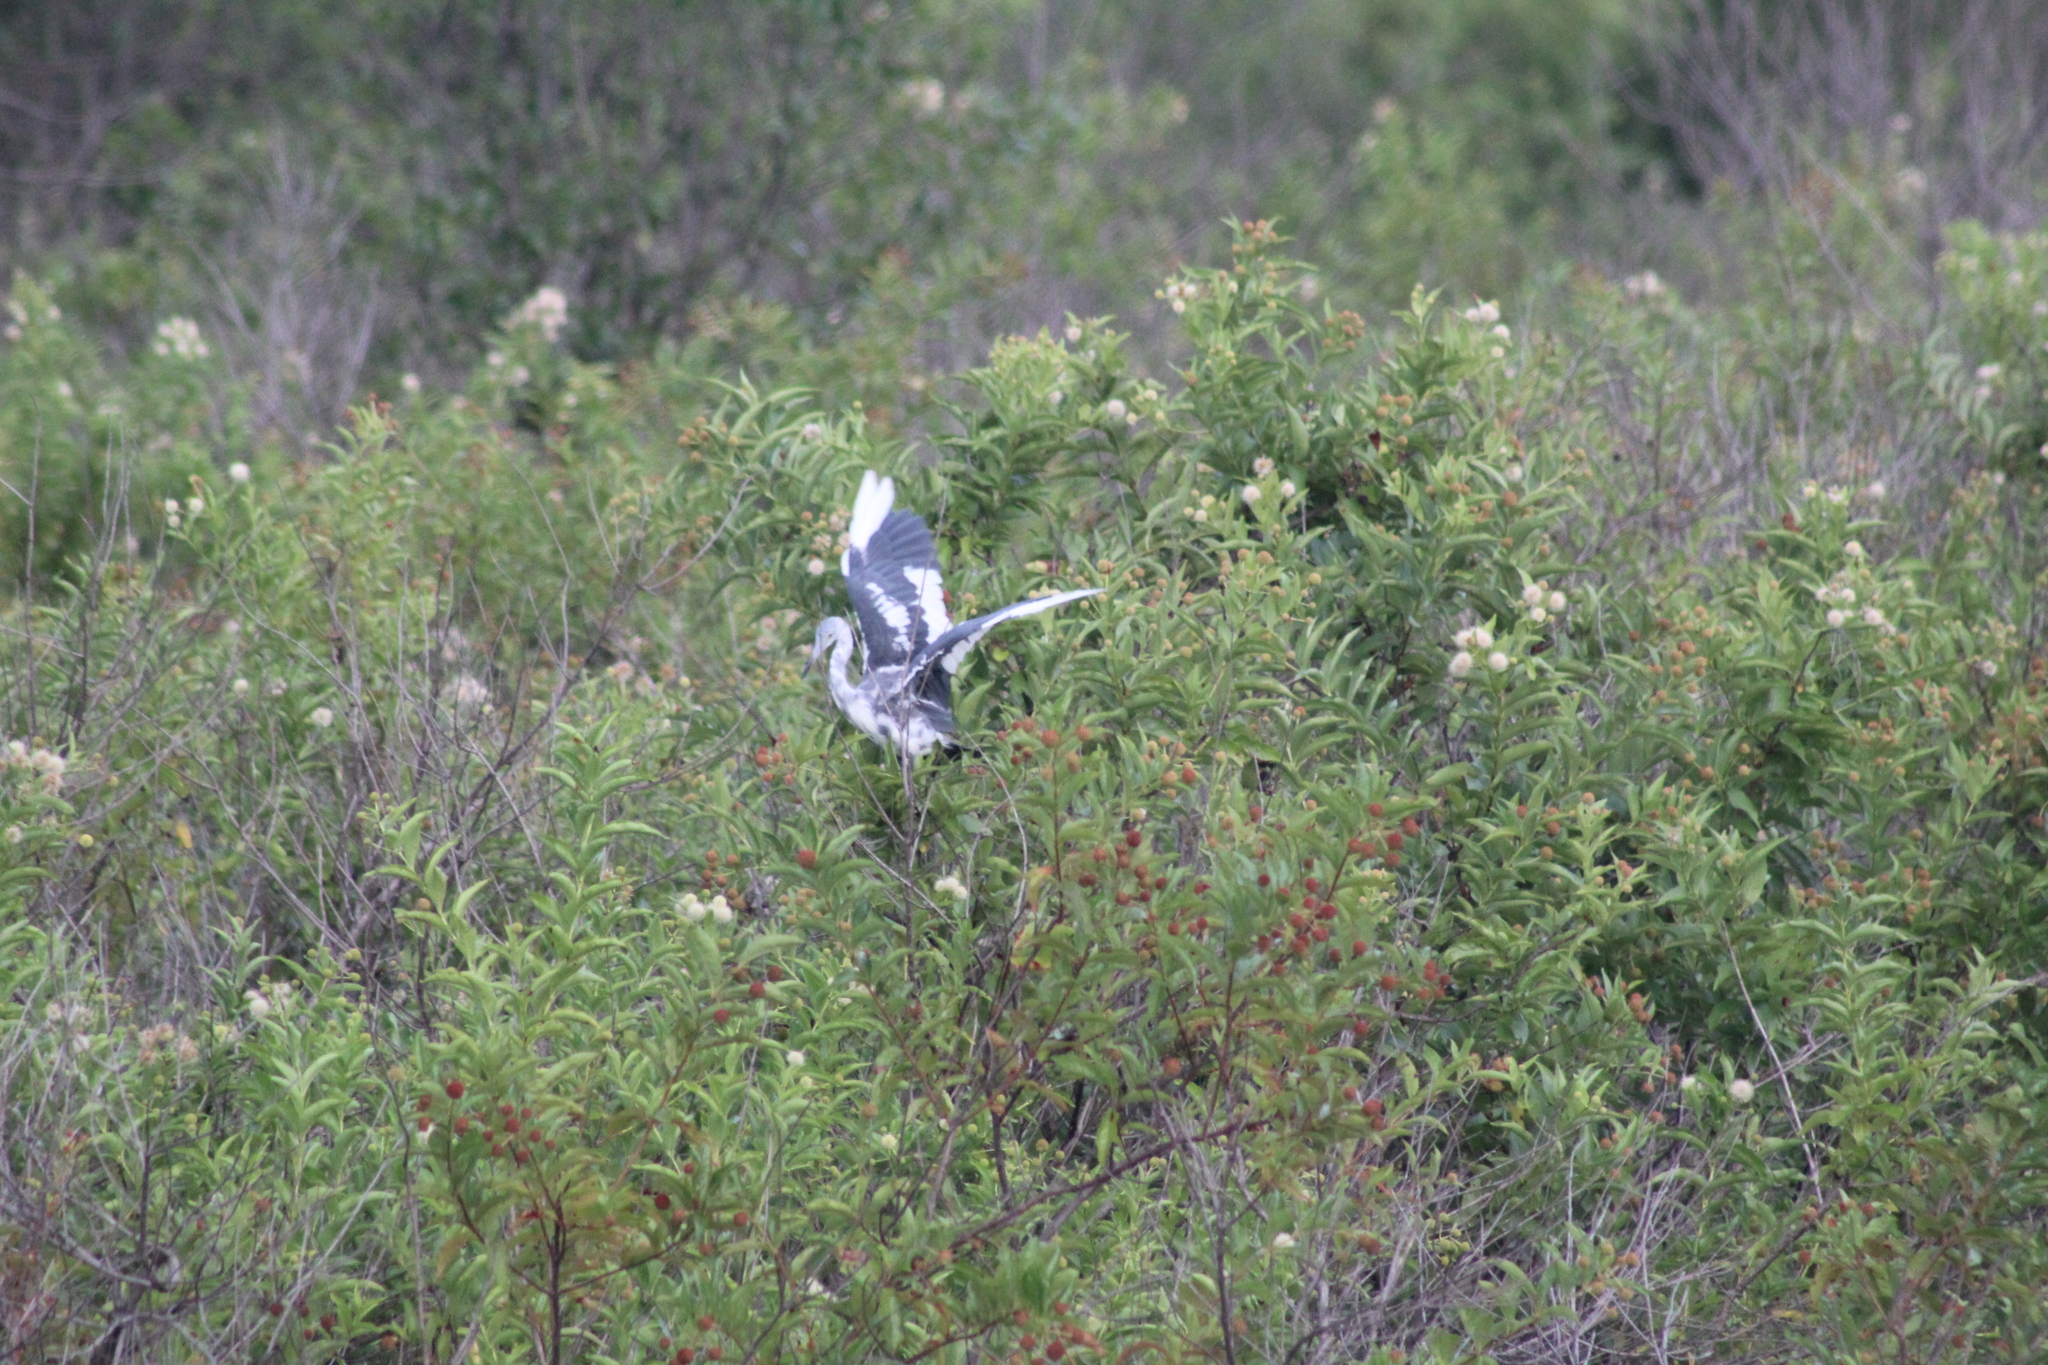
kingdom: Animalia
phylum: Chordata
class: Aves
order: Pelecaniformes
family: Ardeidae
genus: Egretta
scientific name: Egretta caerulea
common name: Little blue heron
